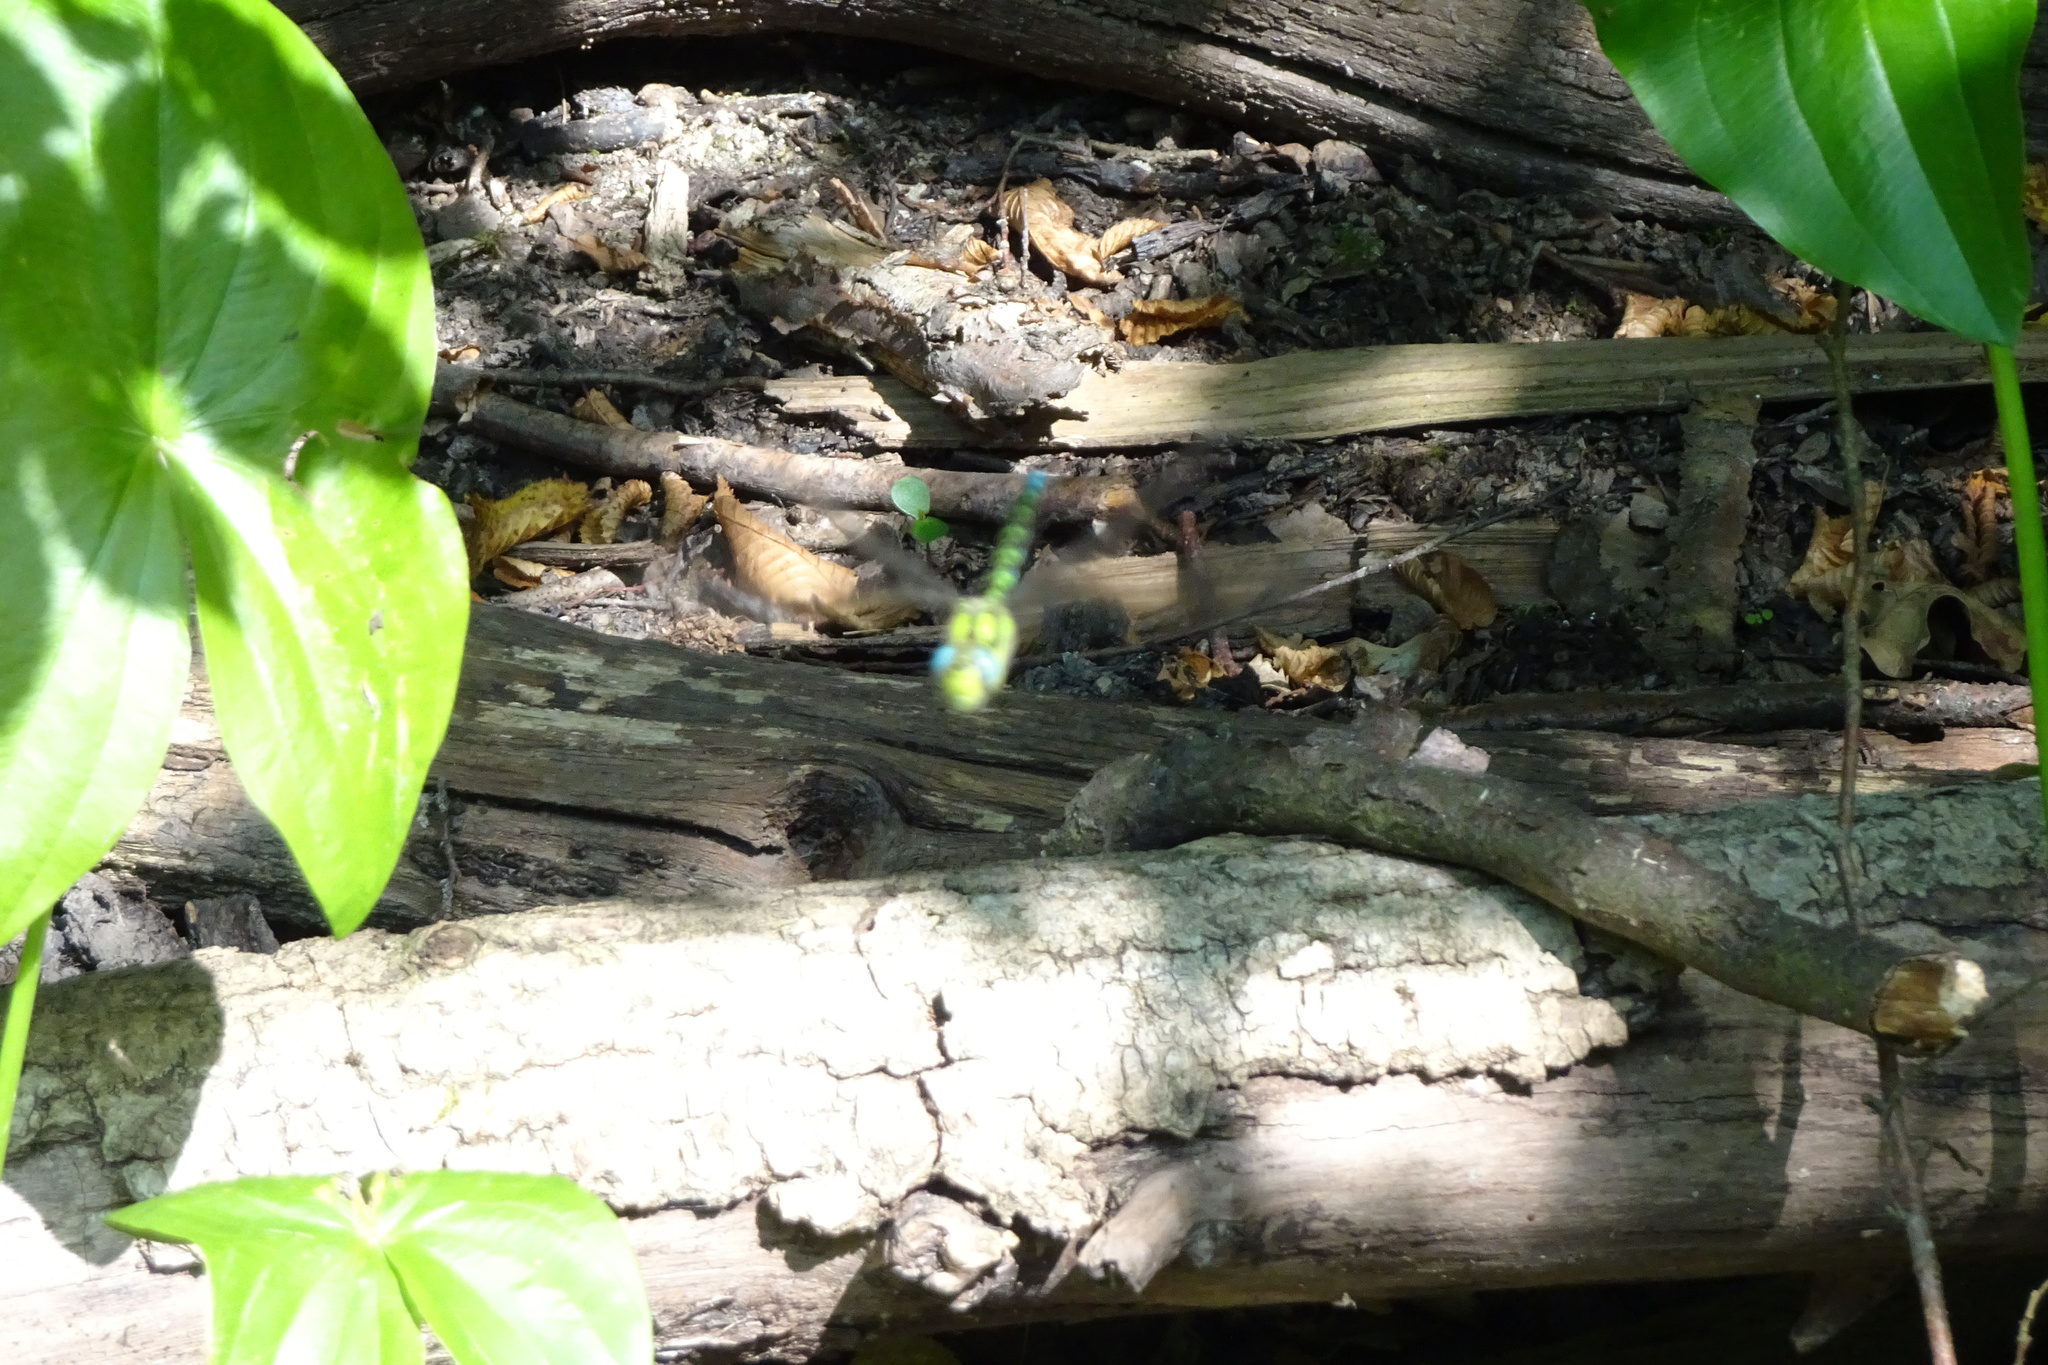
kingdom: Animalia
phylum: Arthropoda
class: Insecta
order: Odonata
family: Aeshnidae
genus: Aeshna
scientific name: Aeshna cyanea
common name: Southern hawker
